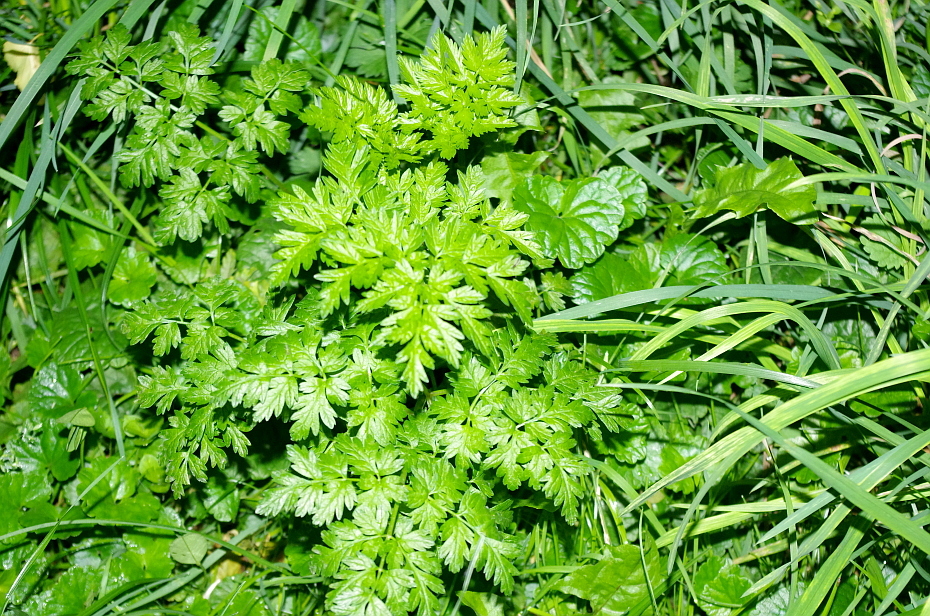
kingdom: Plantae
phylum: Tracheophyta
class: Magnoliopsida
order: Apiales
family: Apiaceae
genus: Anthriscus
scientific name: Anthriscus sylvestris
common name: Cow parsley
